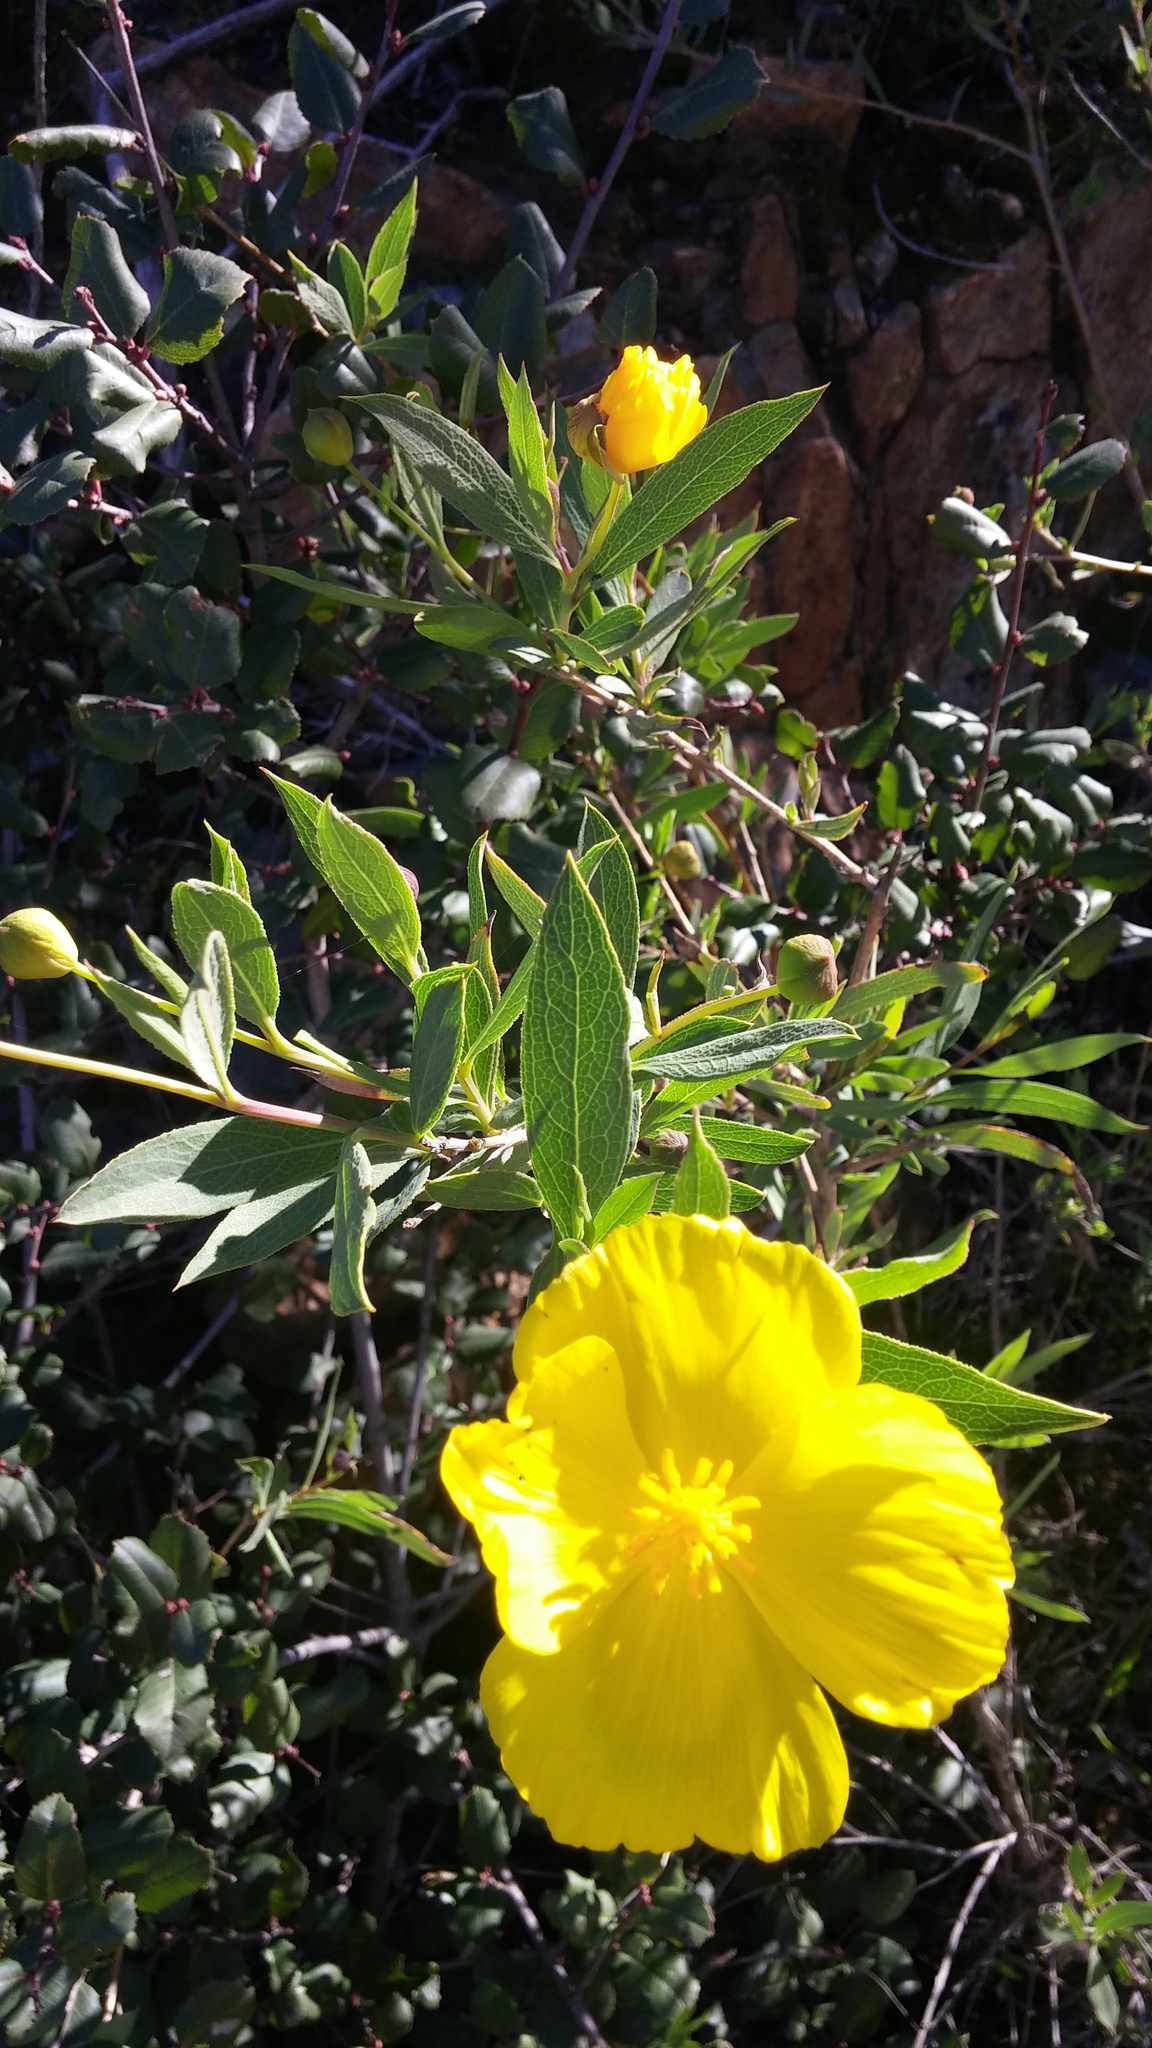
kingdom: Plantae
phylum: Tracheophyta
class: Magnoliopsida
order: Ranunculales
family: Papaveraceae
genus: Dendromecon
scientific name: Dendromecon rigida
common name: Tree poppy
